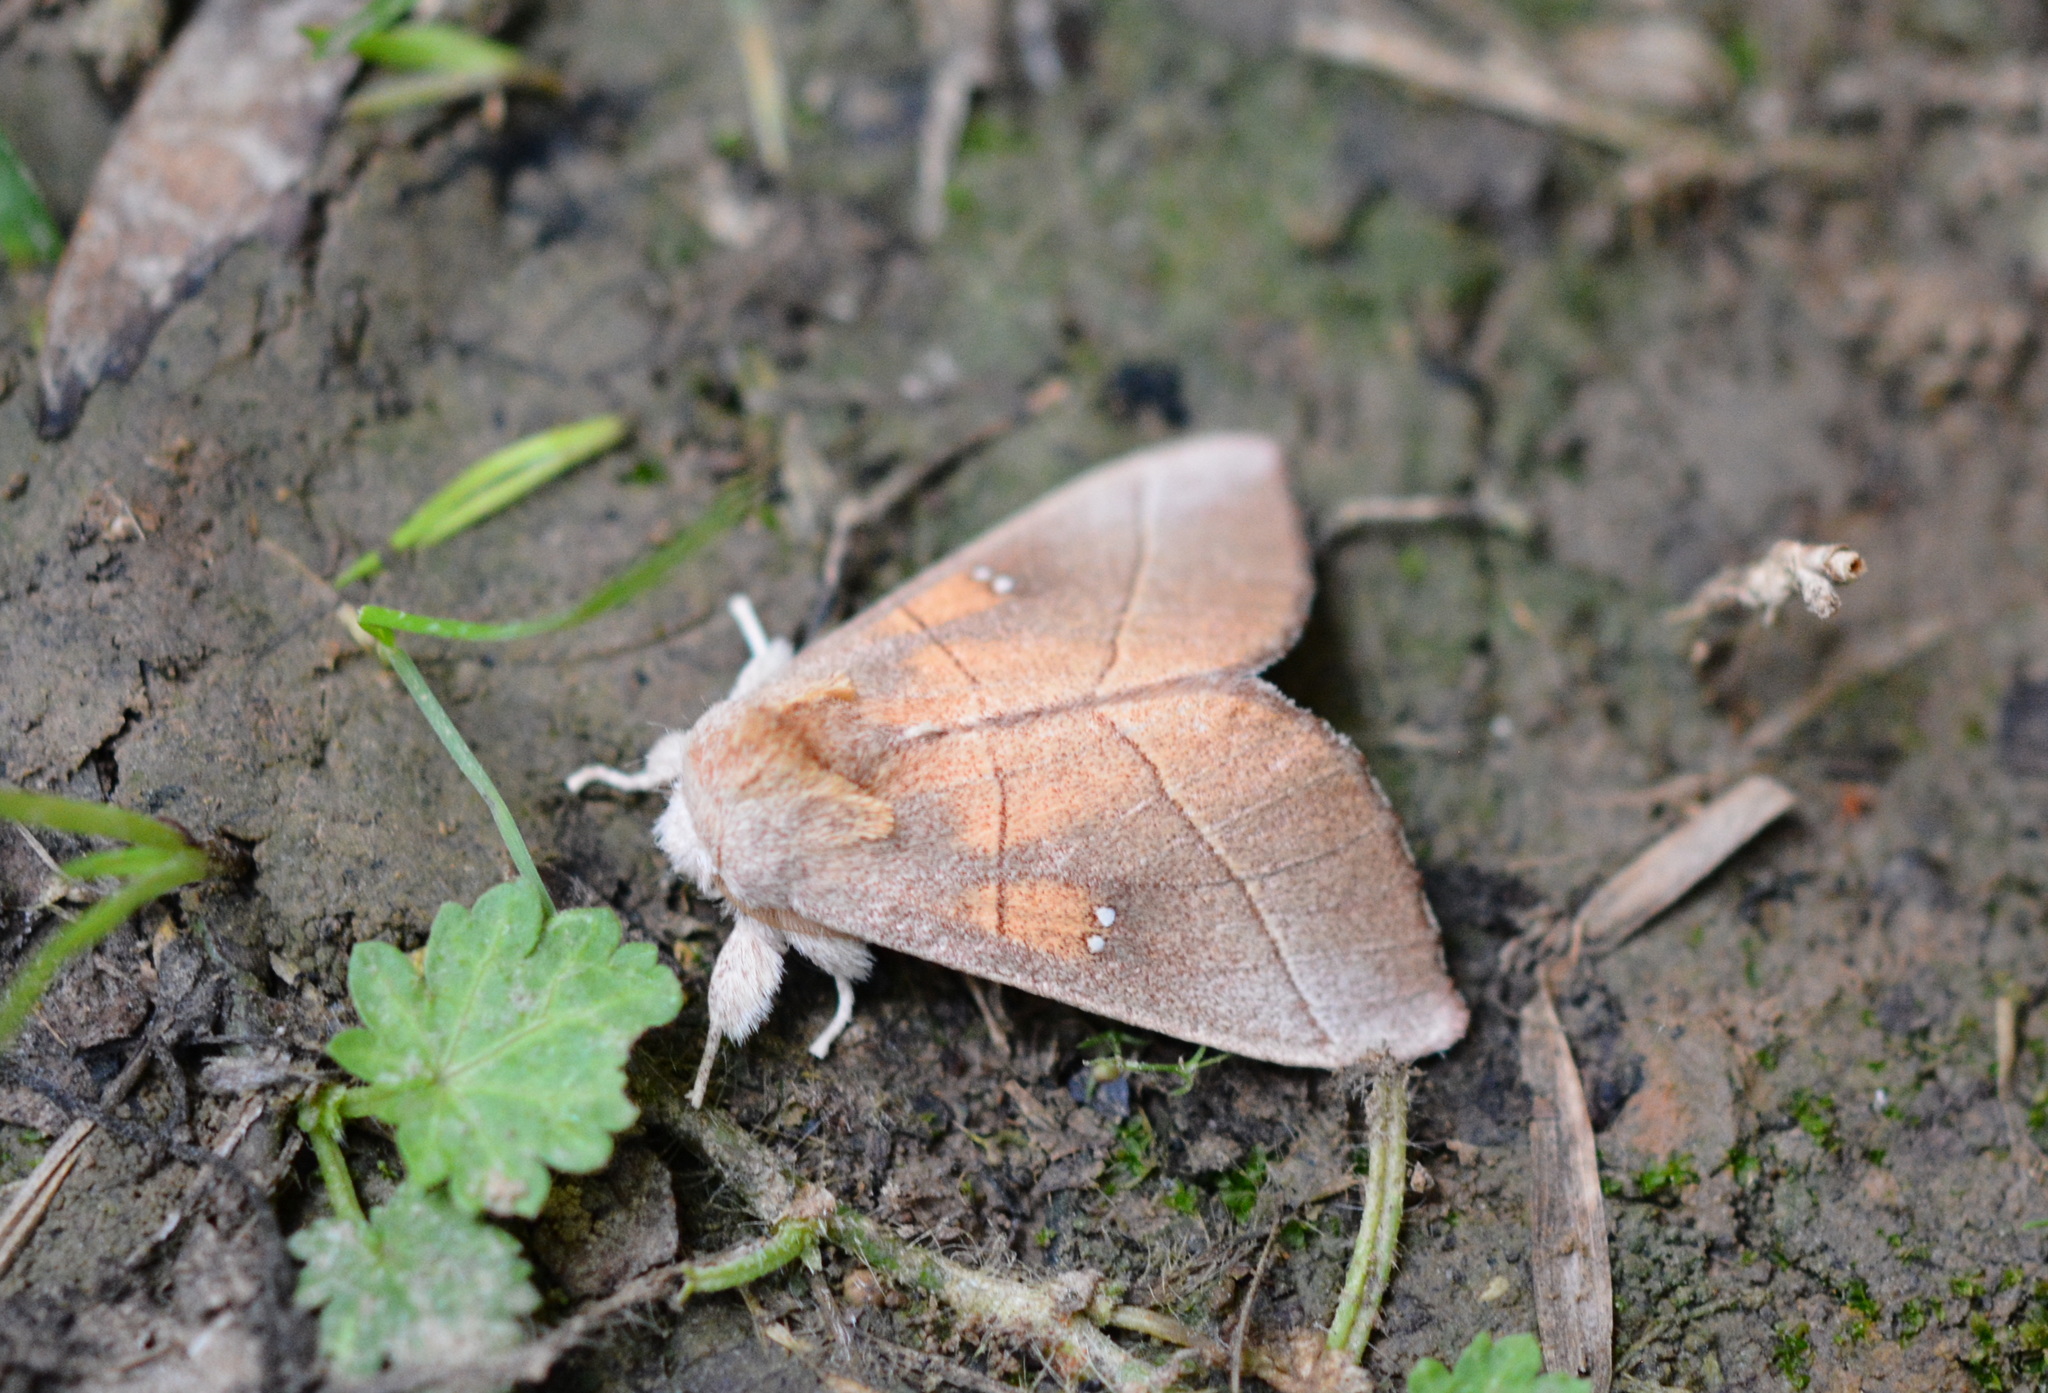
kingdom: Animalia
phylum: Arthropoda
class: Insecta
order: Lepidoptera
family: Notodontidae
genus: Nadata
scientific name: Nadata gibbosa
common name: White-dotted prominent
